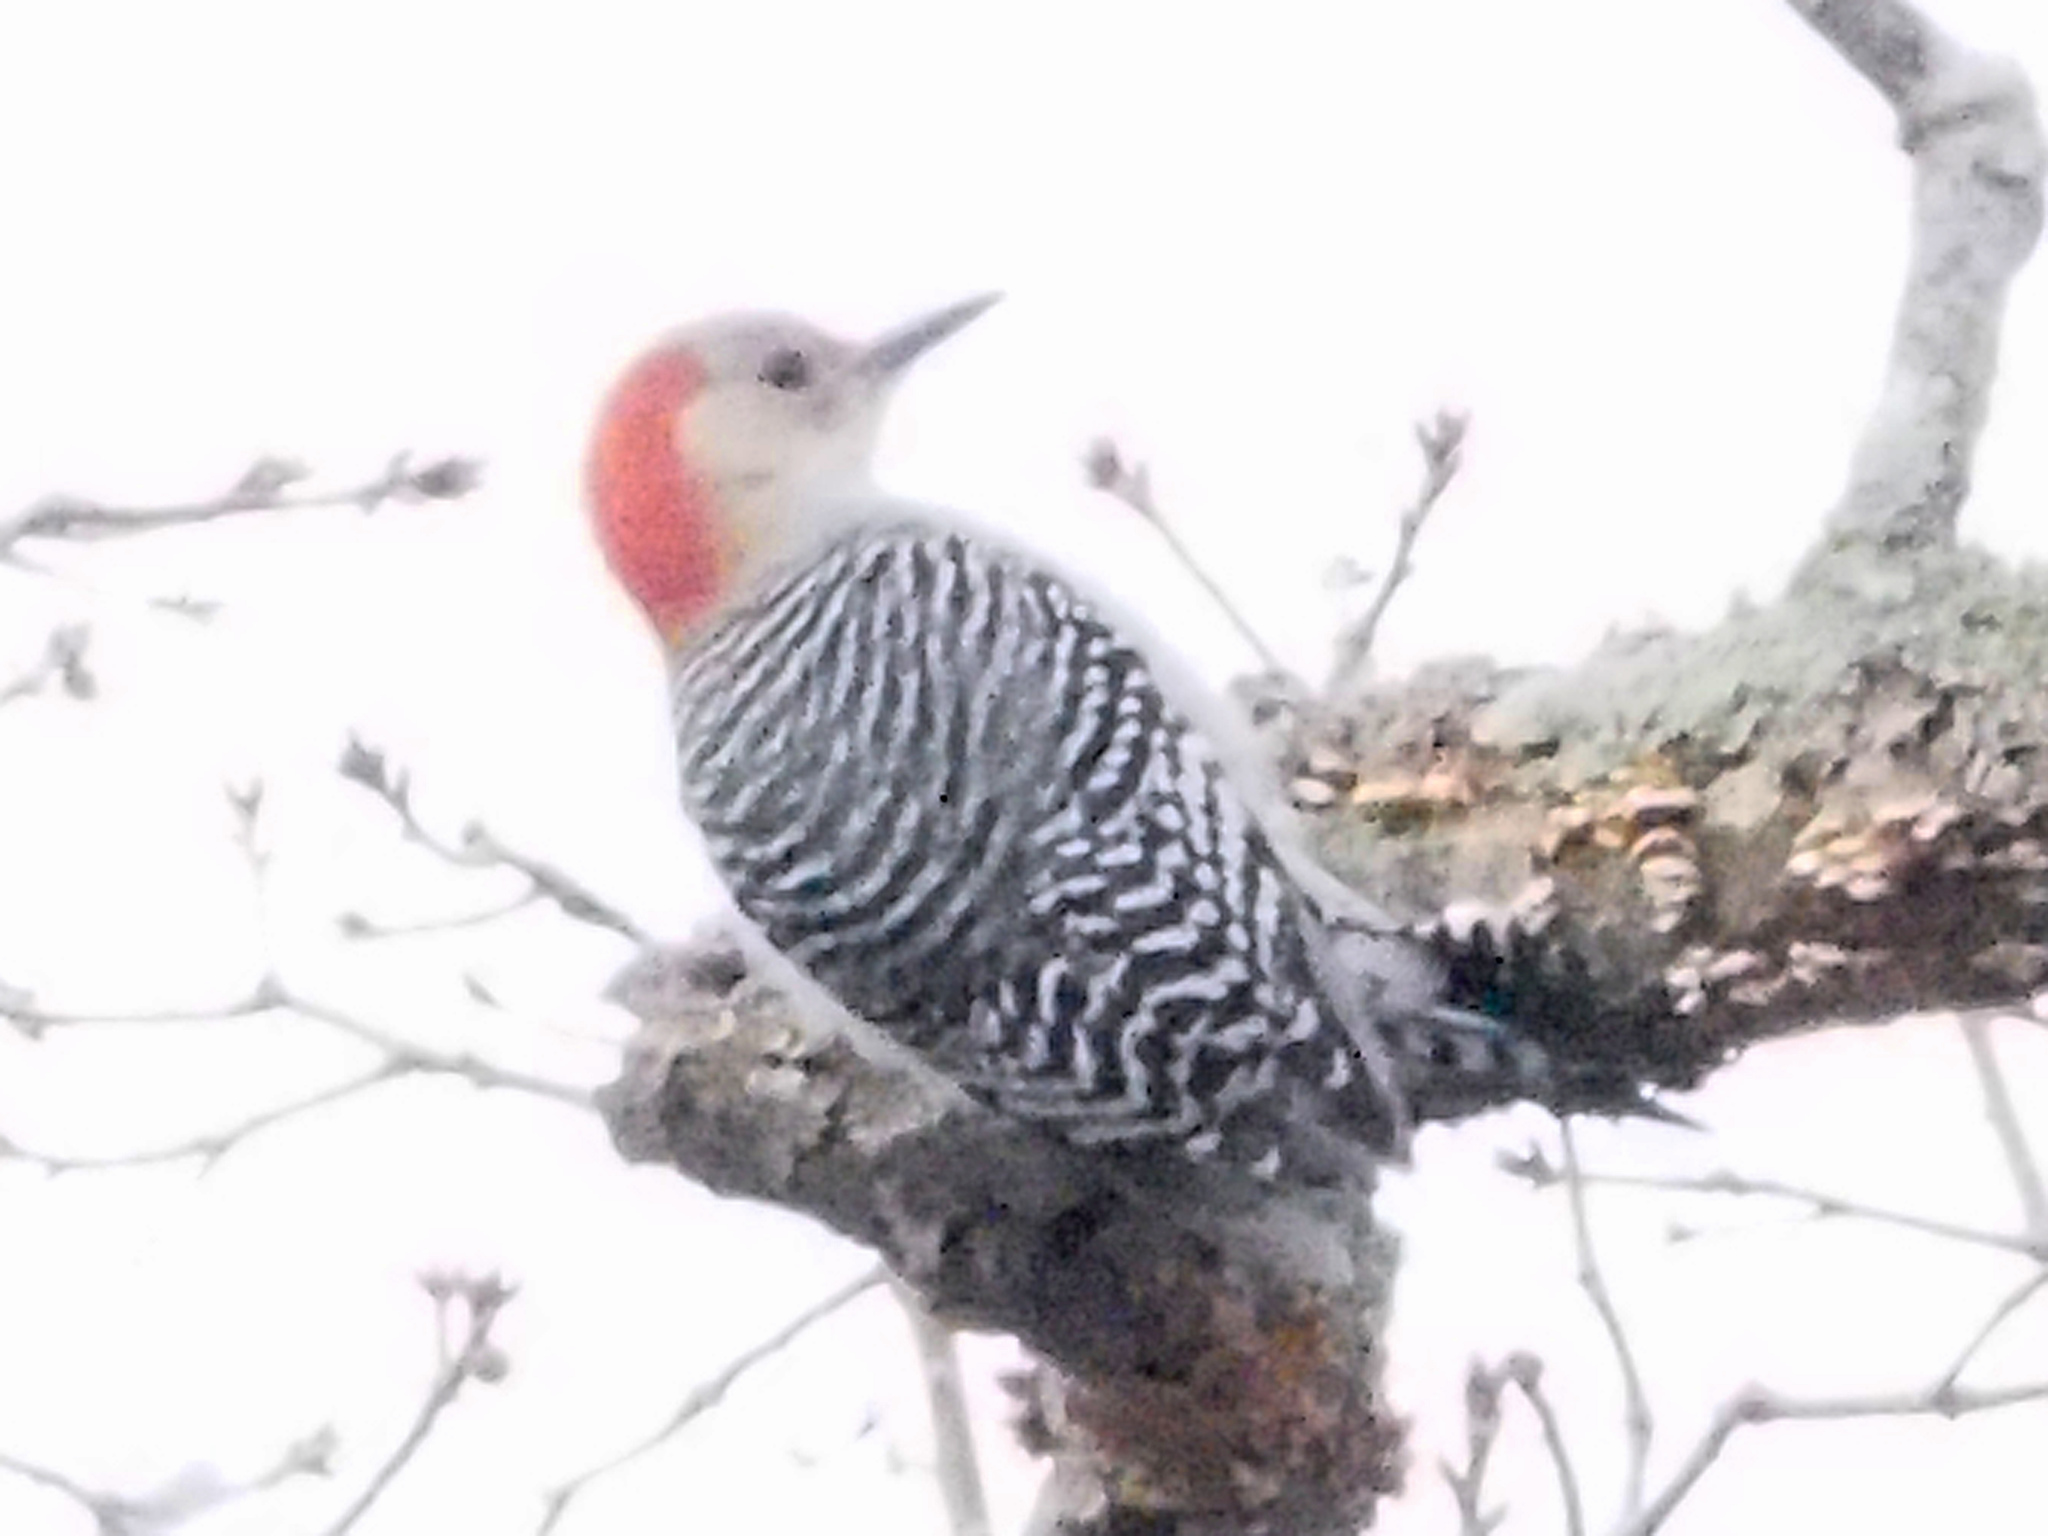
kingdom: Animalia
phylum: Chordata
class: Aves
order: Piciformes
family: Picidae
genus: Melanerpes
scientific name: Melanerpes carolinus
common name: Red-bellied woodpecker
